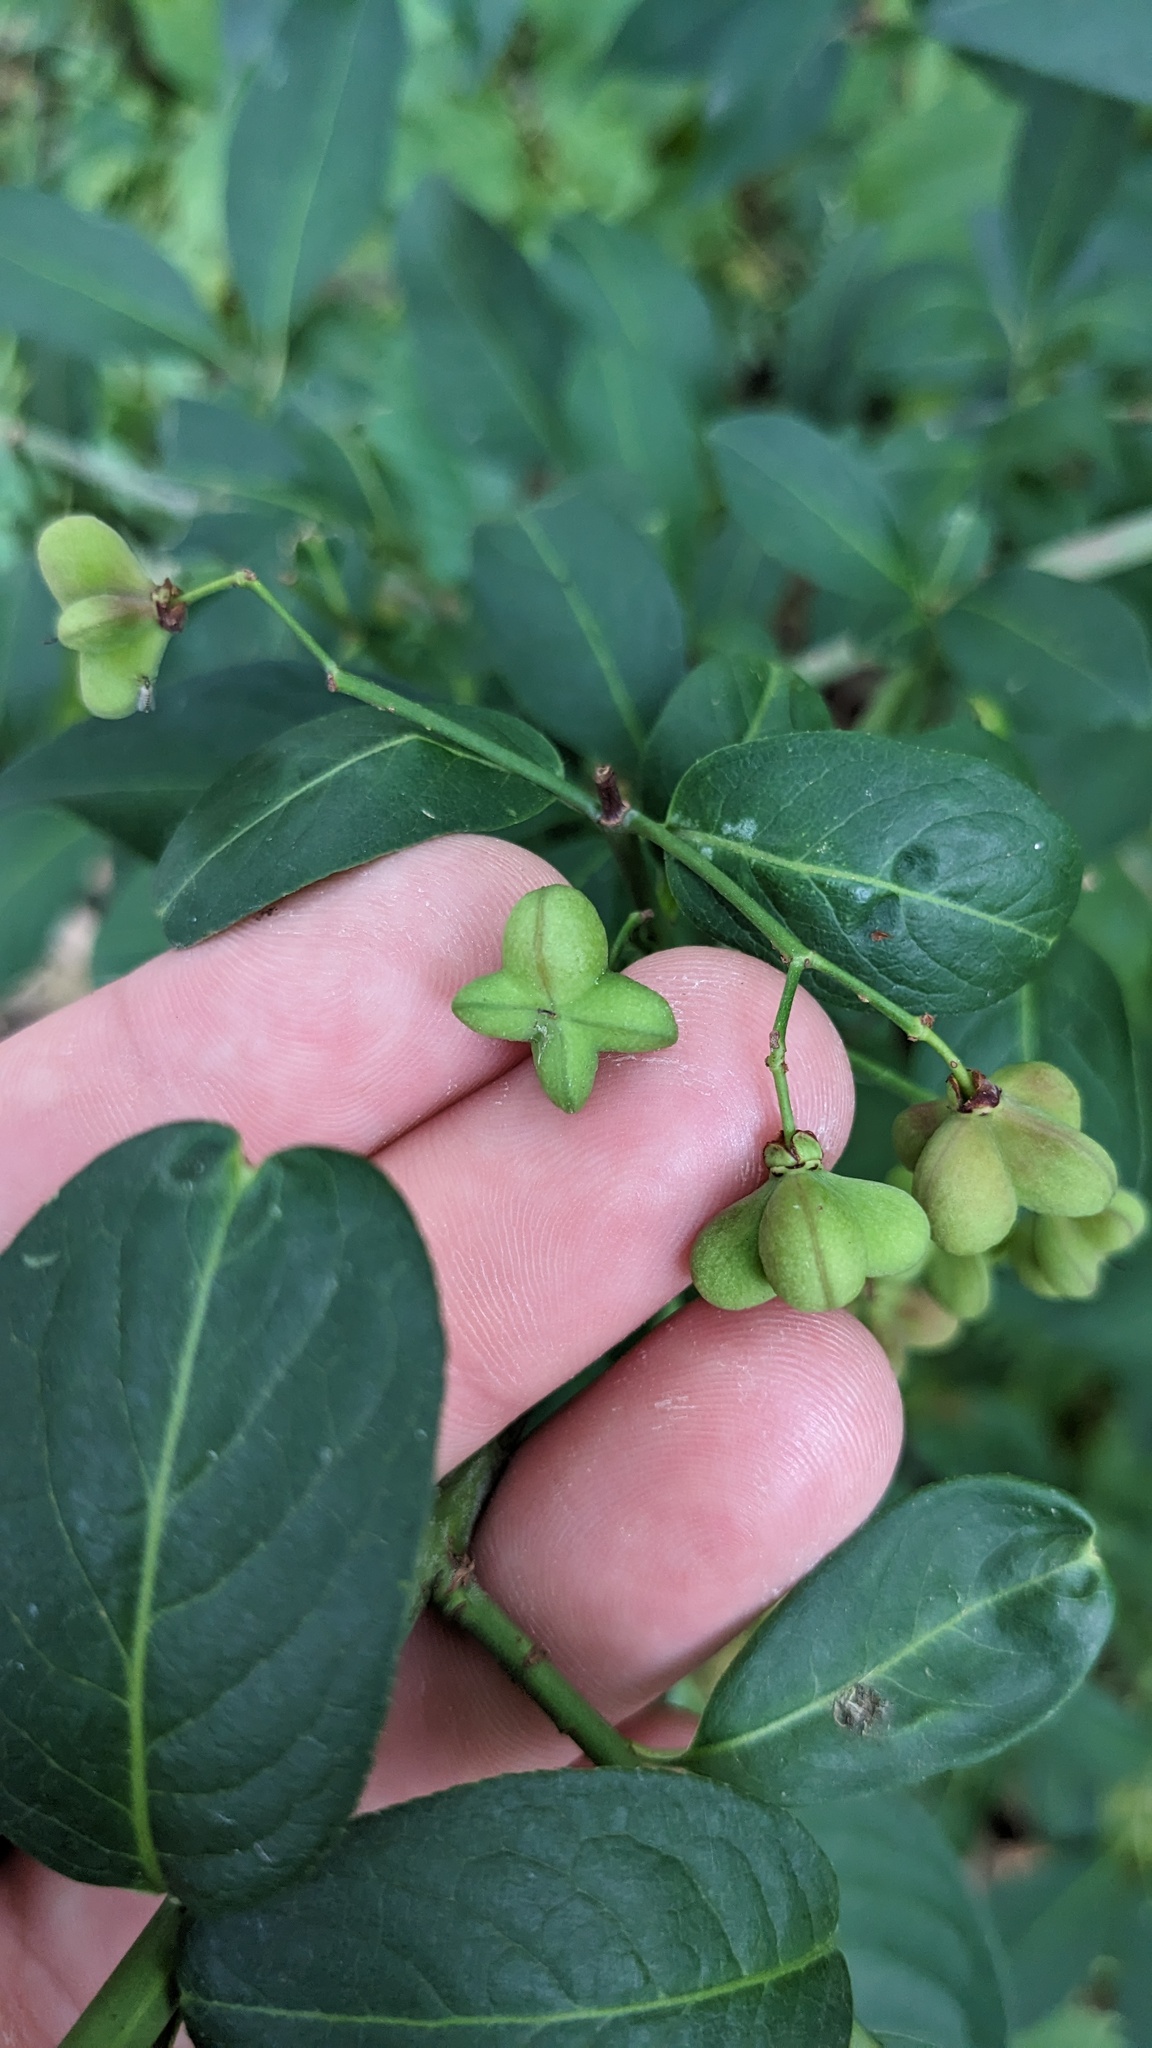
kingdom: Plantae
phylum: Tracheophyta
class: Magnoliopsida
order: Celastrales
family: Celastraceae
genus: Euonymus
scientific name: Euonymus europaeus
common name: Spindle
